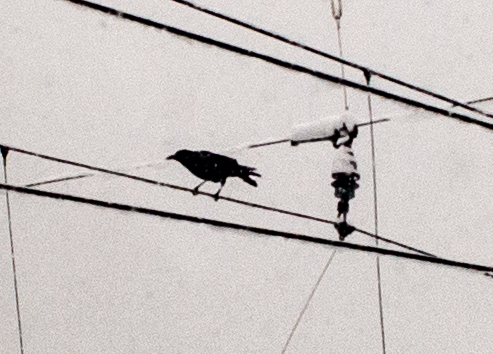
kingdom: Animalia
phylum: Chordata
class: Aves
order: Passeriformes
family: Corvidae
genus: Corvus
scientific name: Corvus corax
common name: Common raven
